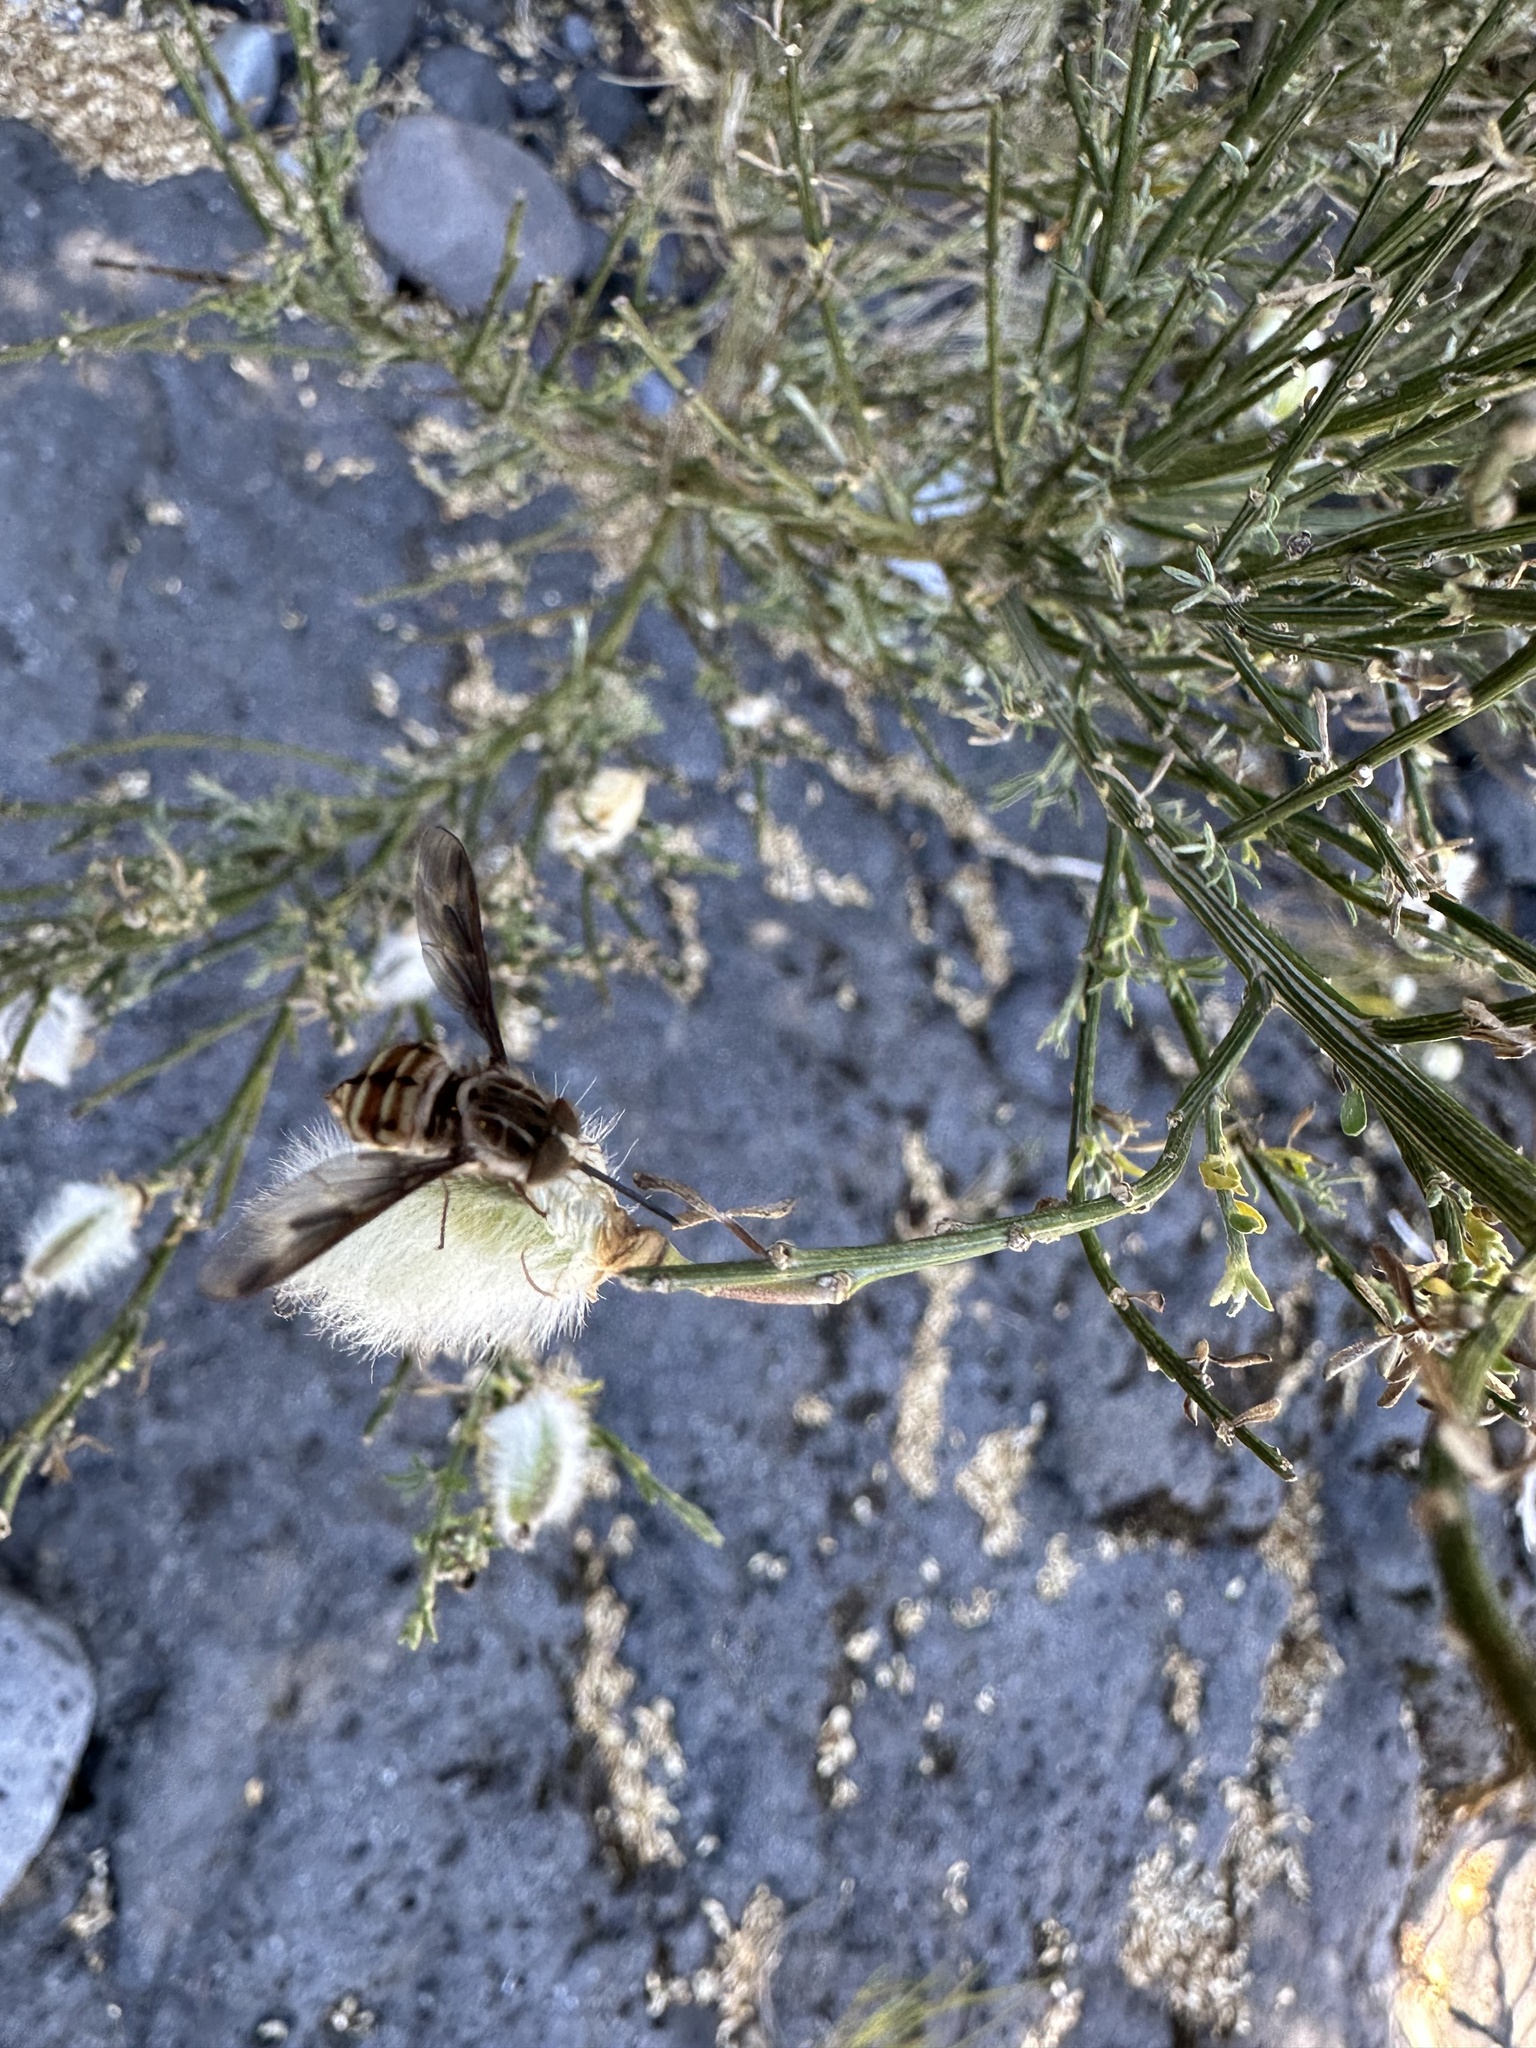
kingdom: Animalia
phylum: Arthropoda
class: Insecta
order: Diptera
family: Nemestrinidae
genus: Trichophthalma
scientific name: Trichophthalma nubipennis
